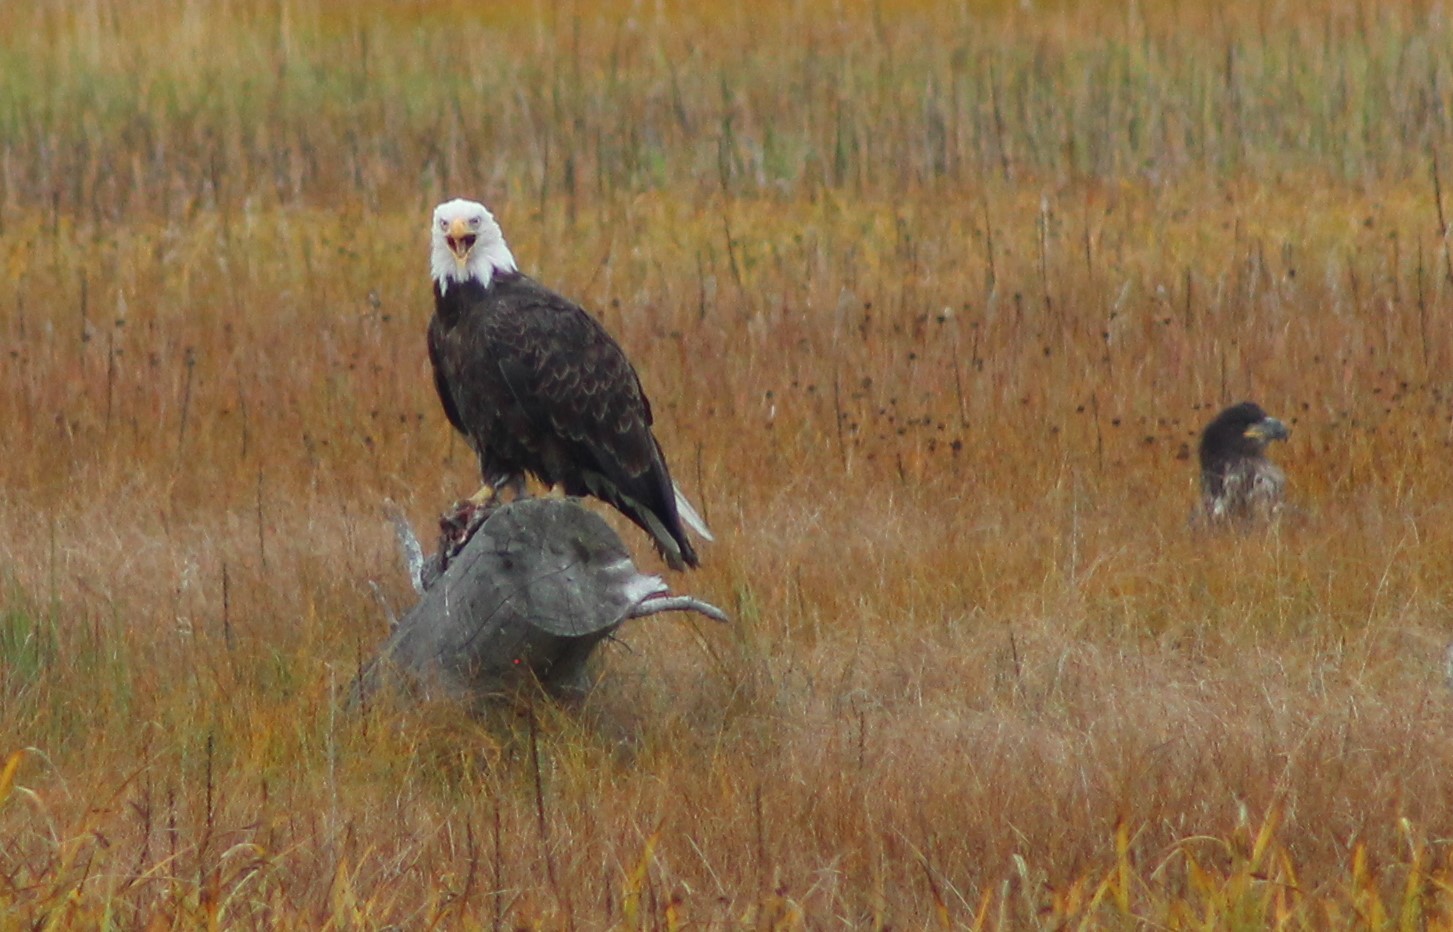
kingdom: Animalia
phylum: Chordata
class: Aves
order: Accipitriformes
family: Accipitridae
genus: Haliaeetus
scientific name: Haliaeetus leucocephalus
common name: Bald eagle
